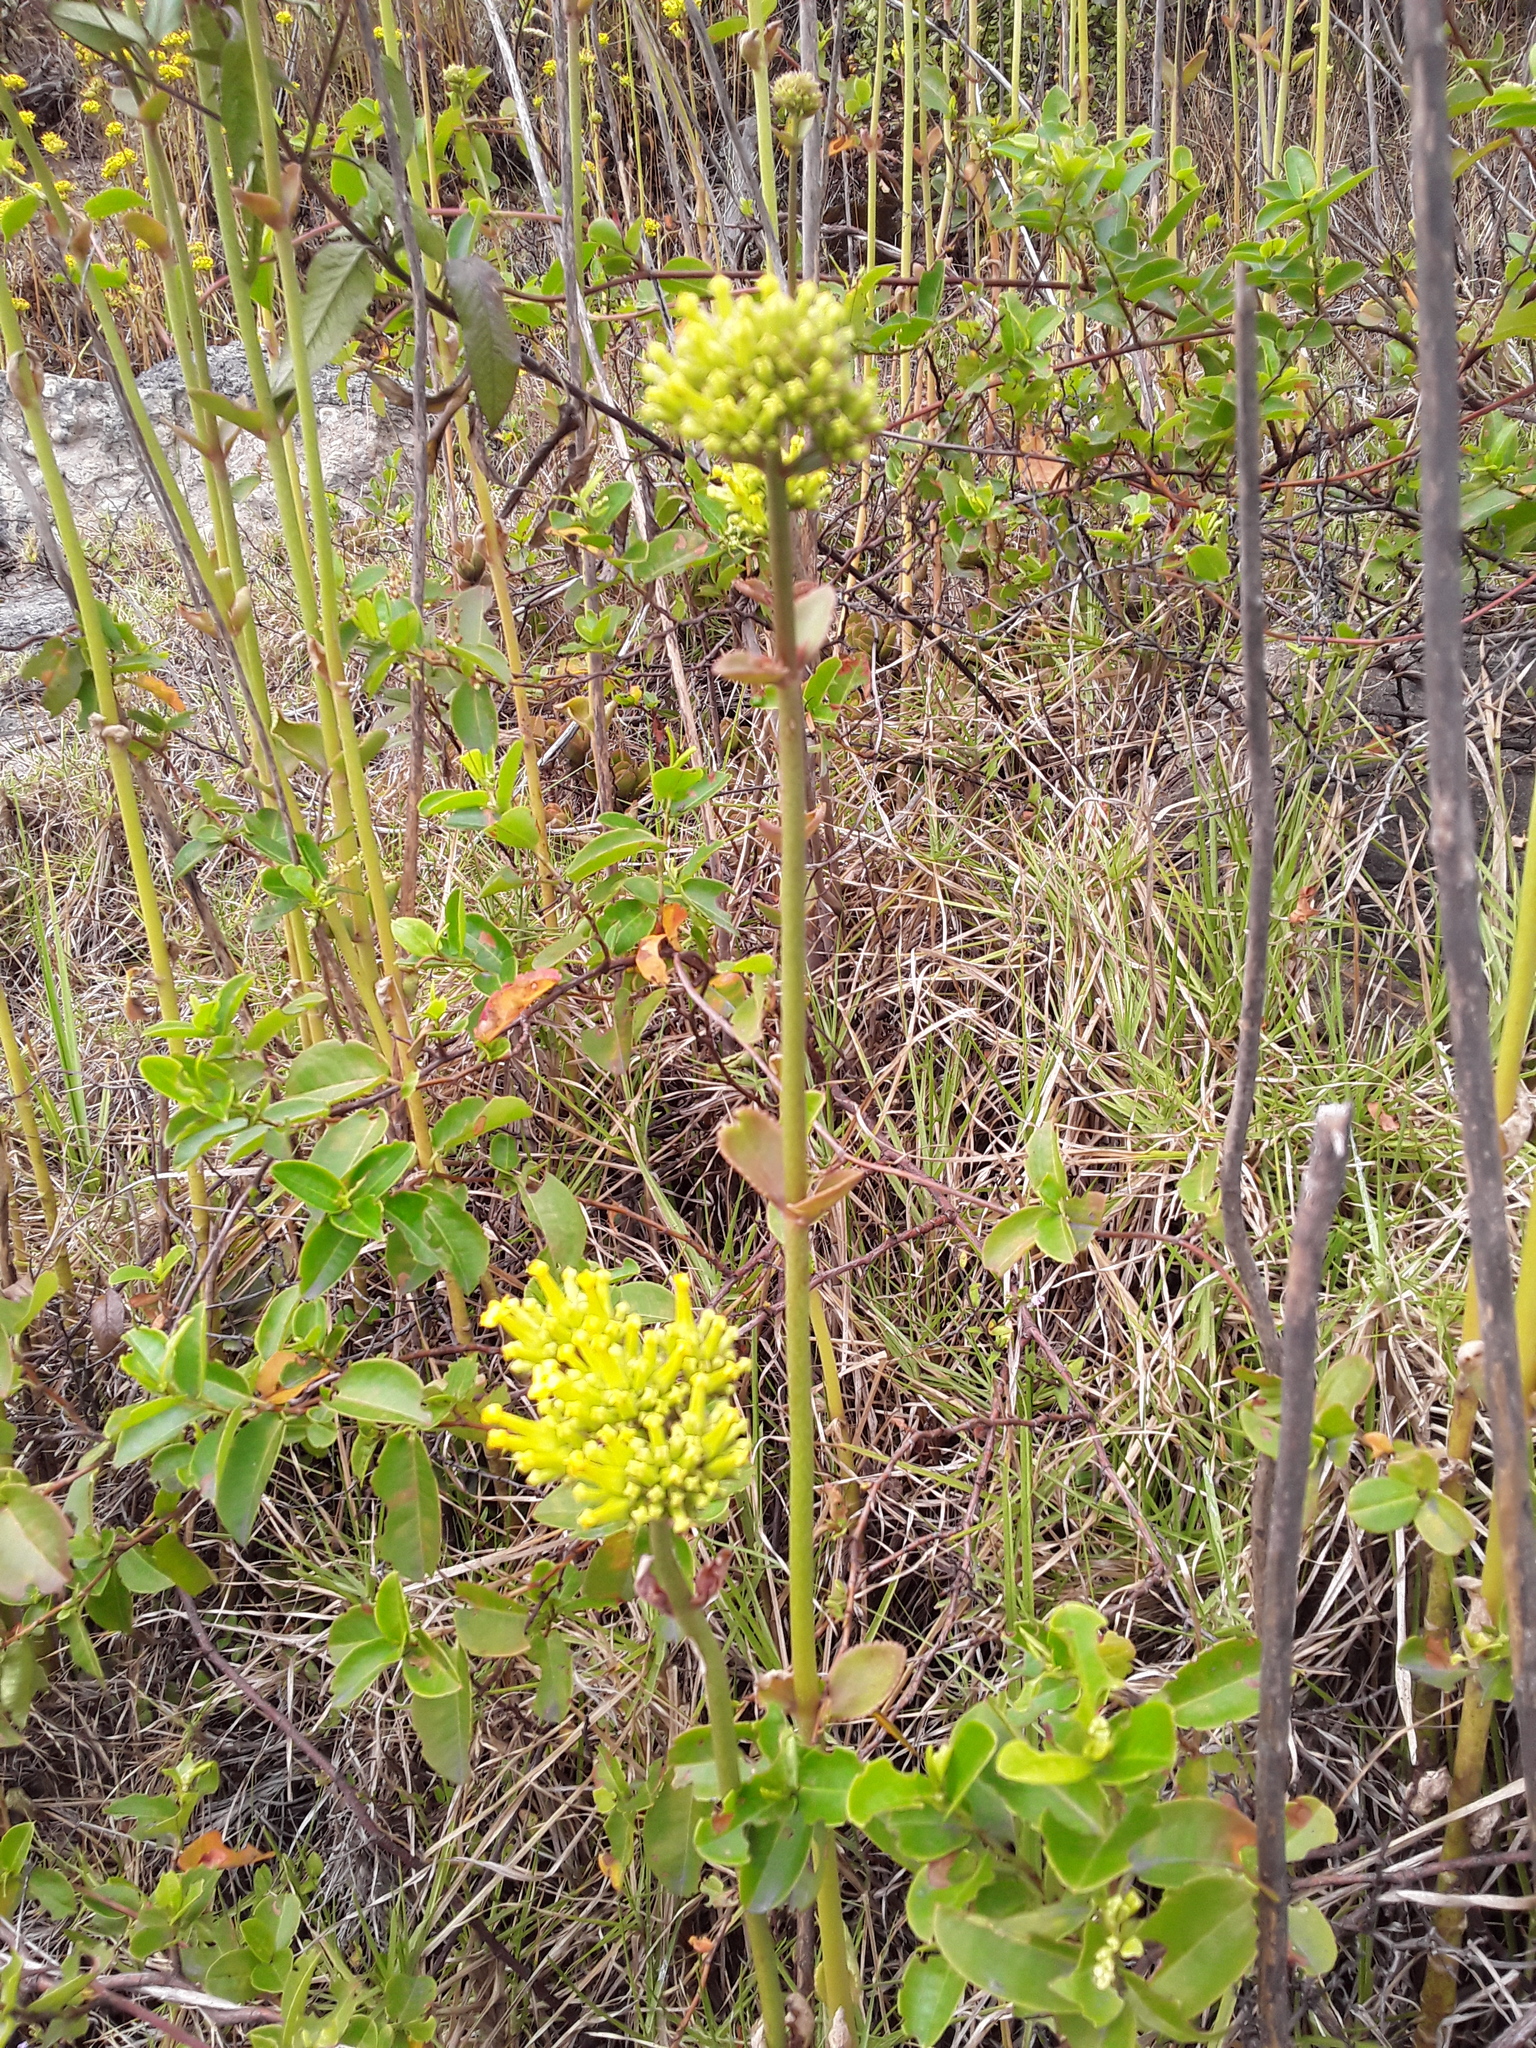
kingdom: Plantae
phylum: Tracheophyta
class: Magnoliopsida
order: Saxifragales
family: Crassulaceae
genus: Kalanchoe
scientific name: Kalanchoe densiflora
